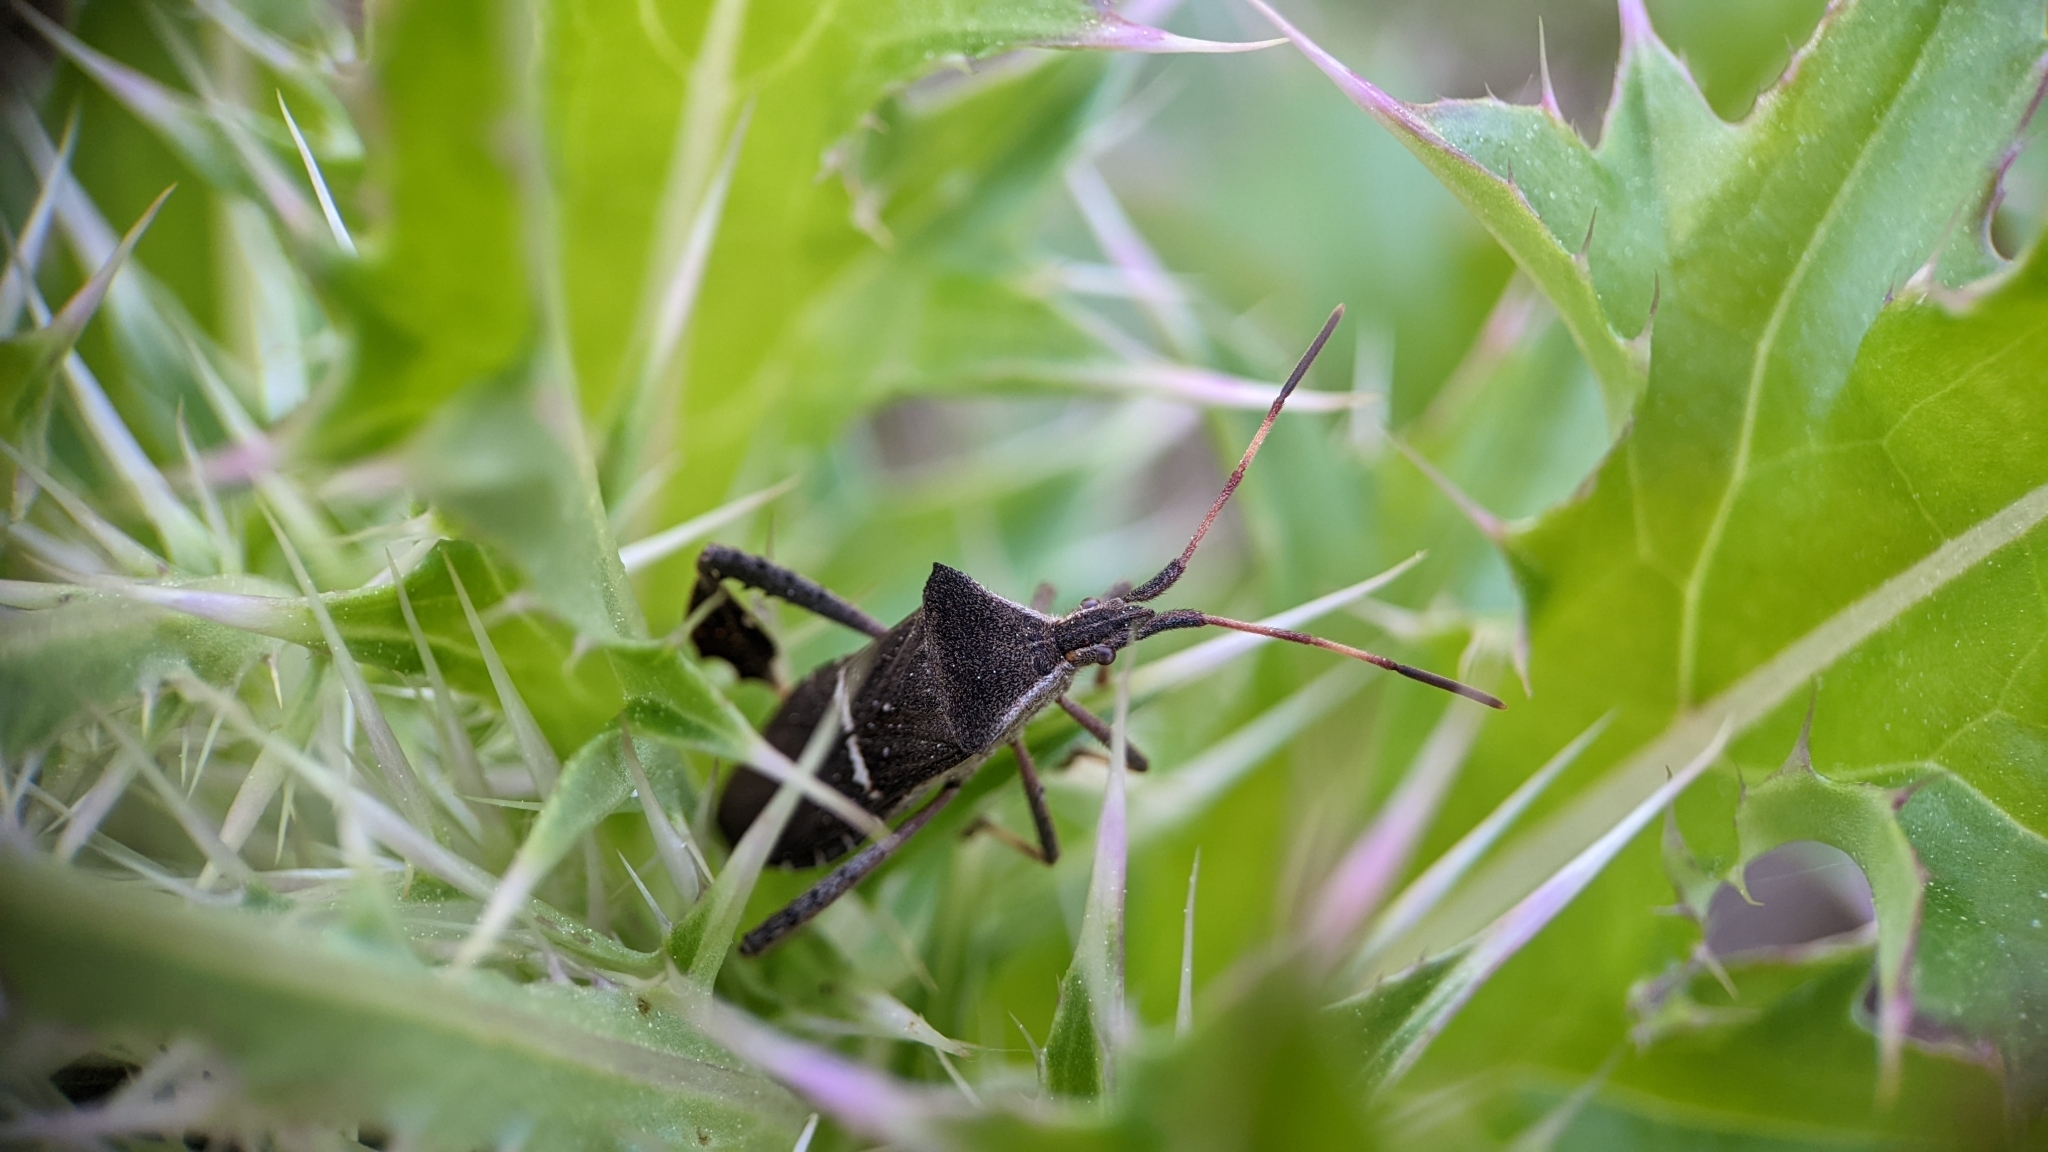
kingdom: Animalia
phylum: Arthropoda
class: Insecta
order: Hemiptera
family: Coreidae
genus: Leptoglossus
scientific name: Leptoglossus phyllopus
